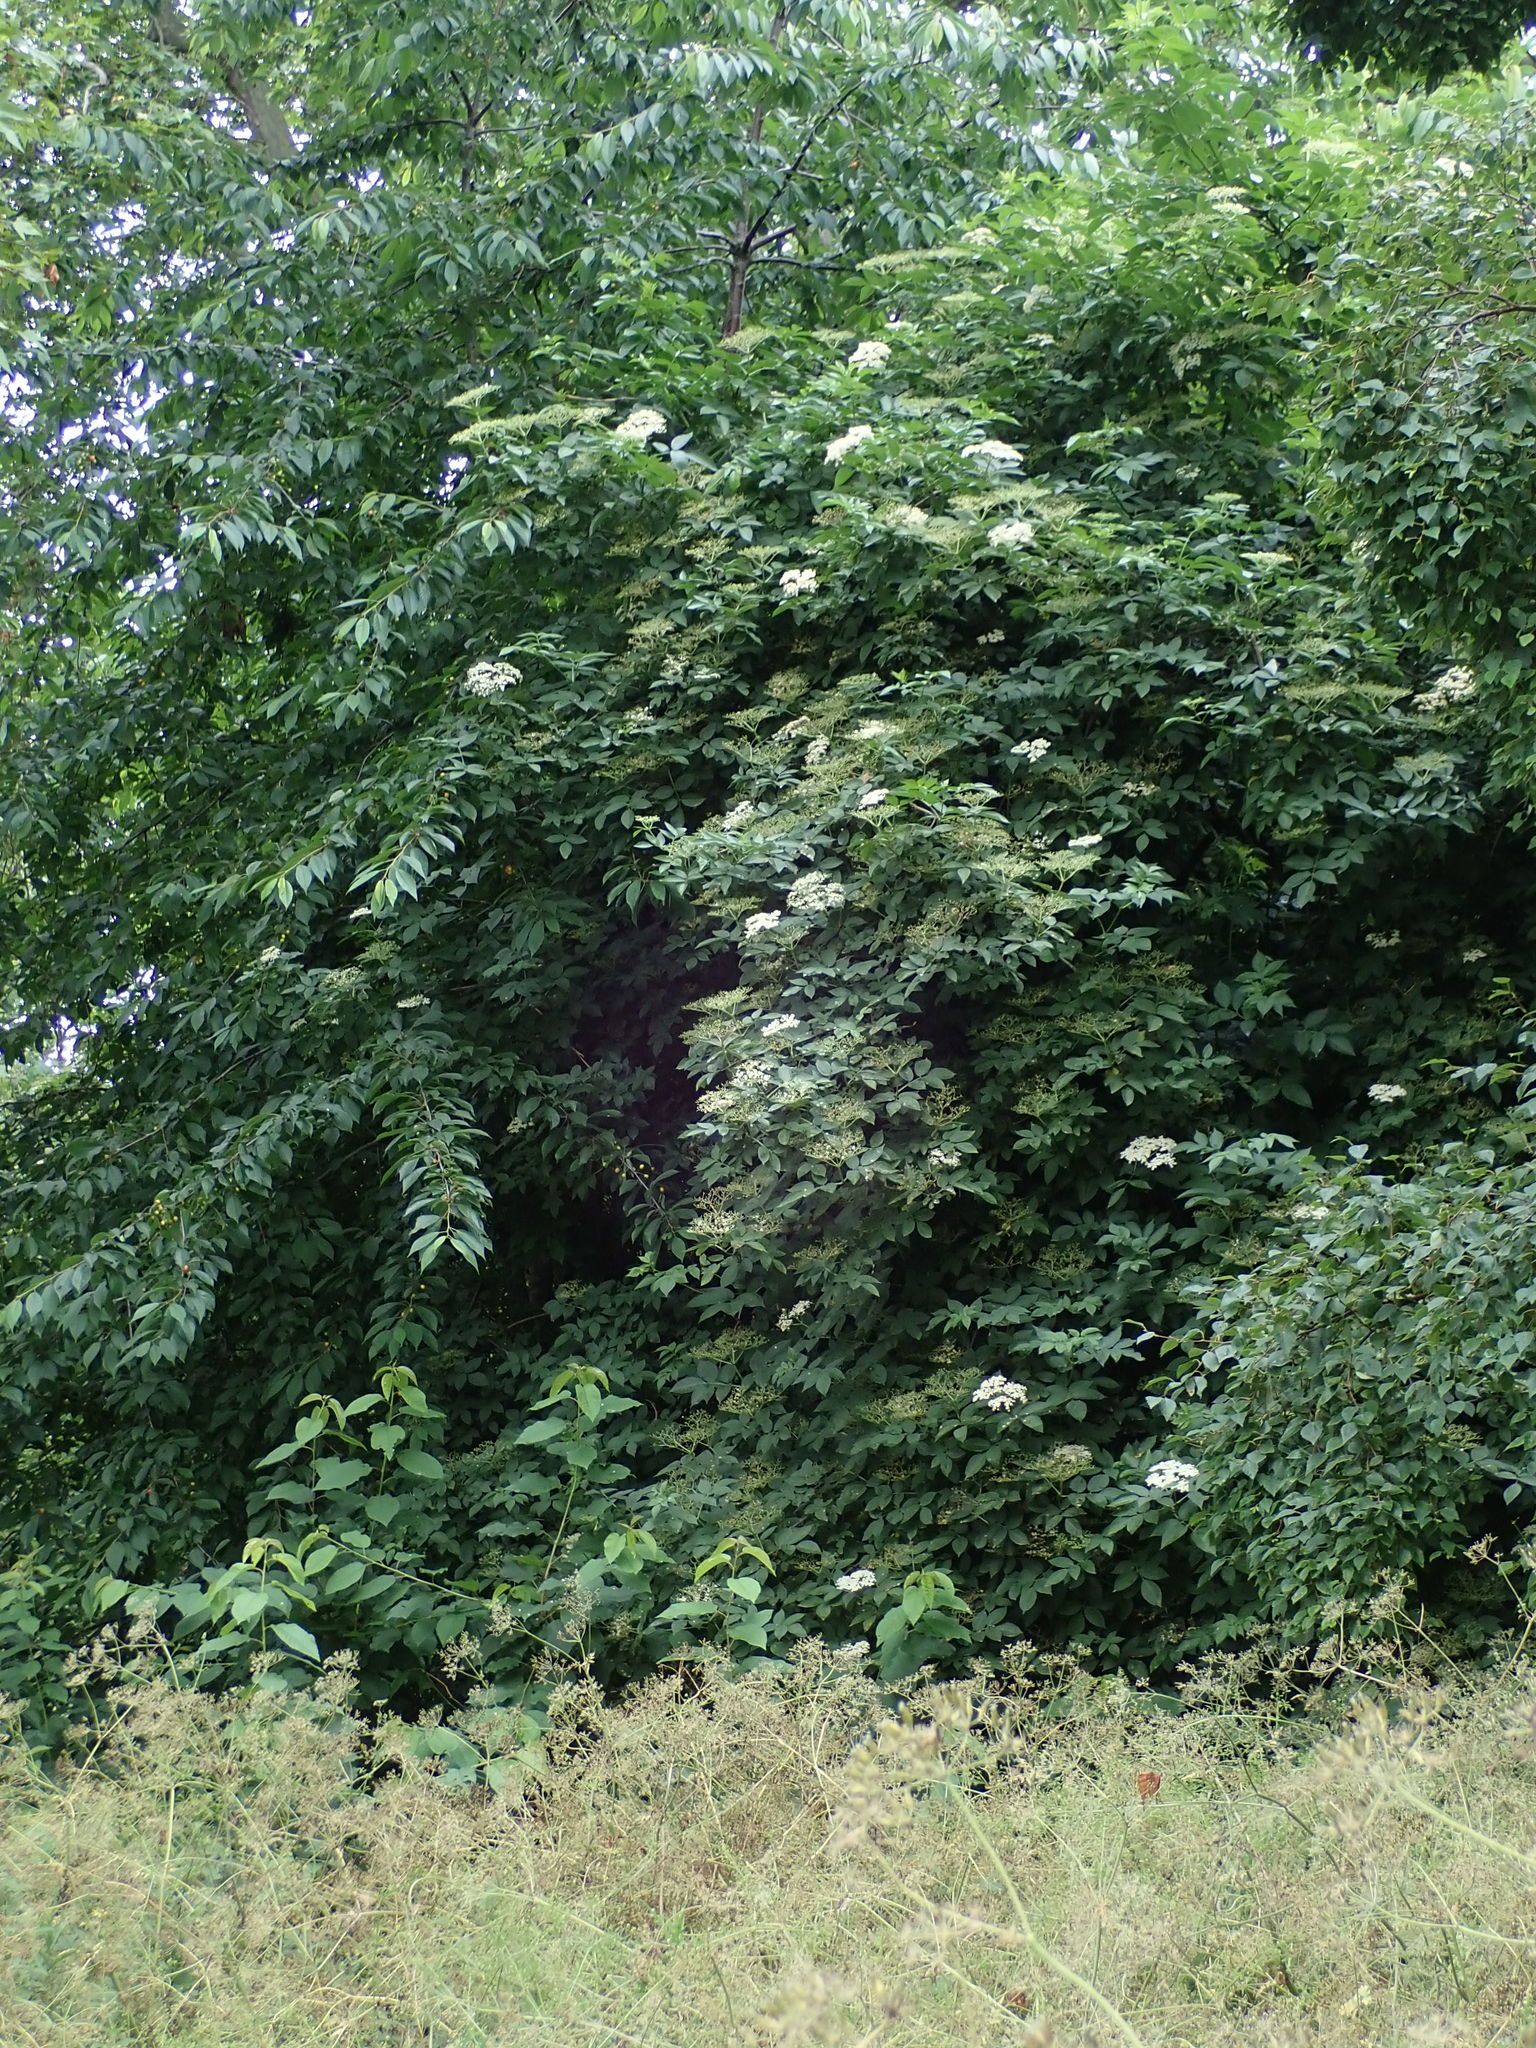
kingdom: Plantae
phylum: Tracheophyta
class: Magnoliopsida
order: Dipsacales
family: Viburnaceae
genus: Sambucus
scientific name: Sambucus nigra
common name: Elder
